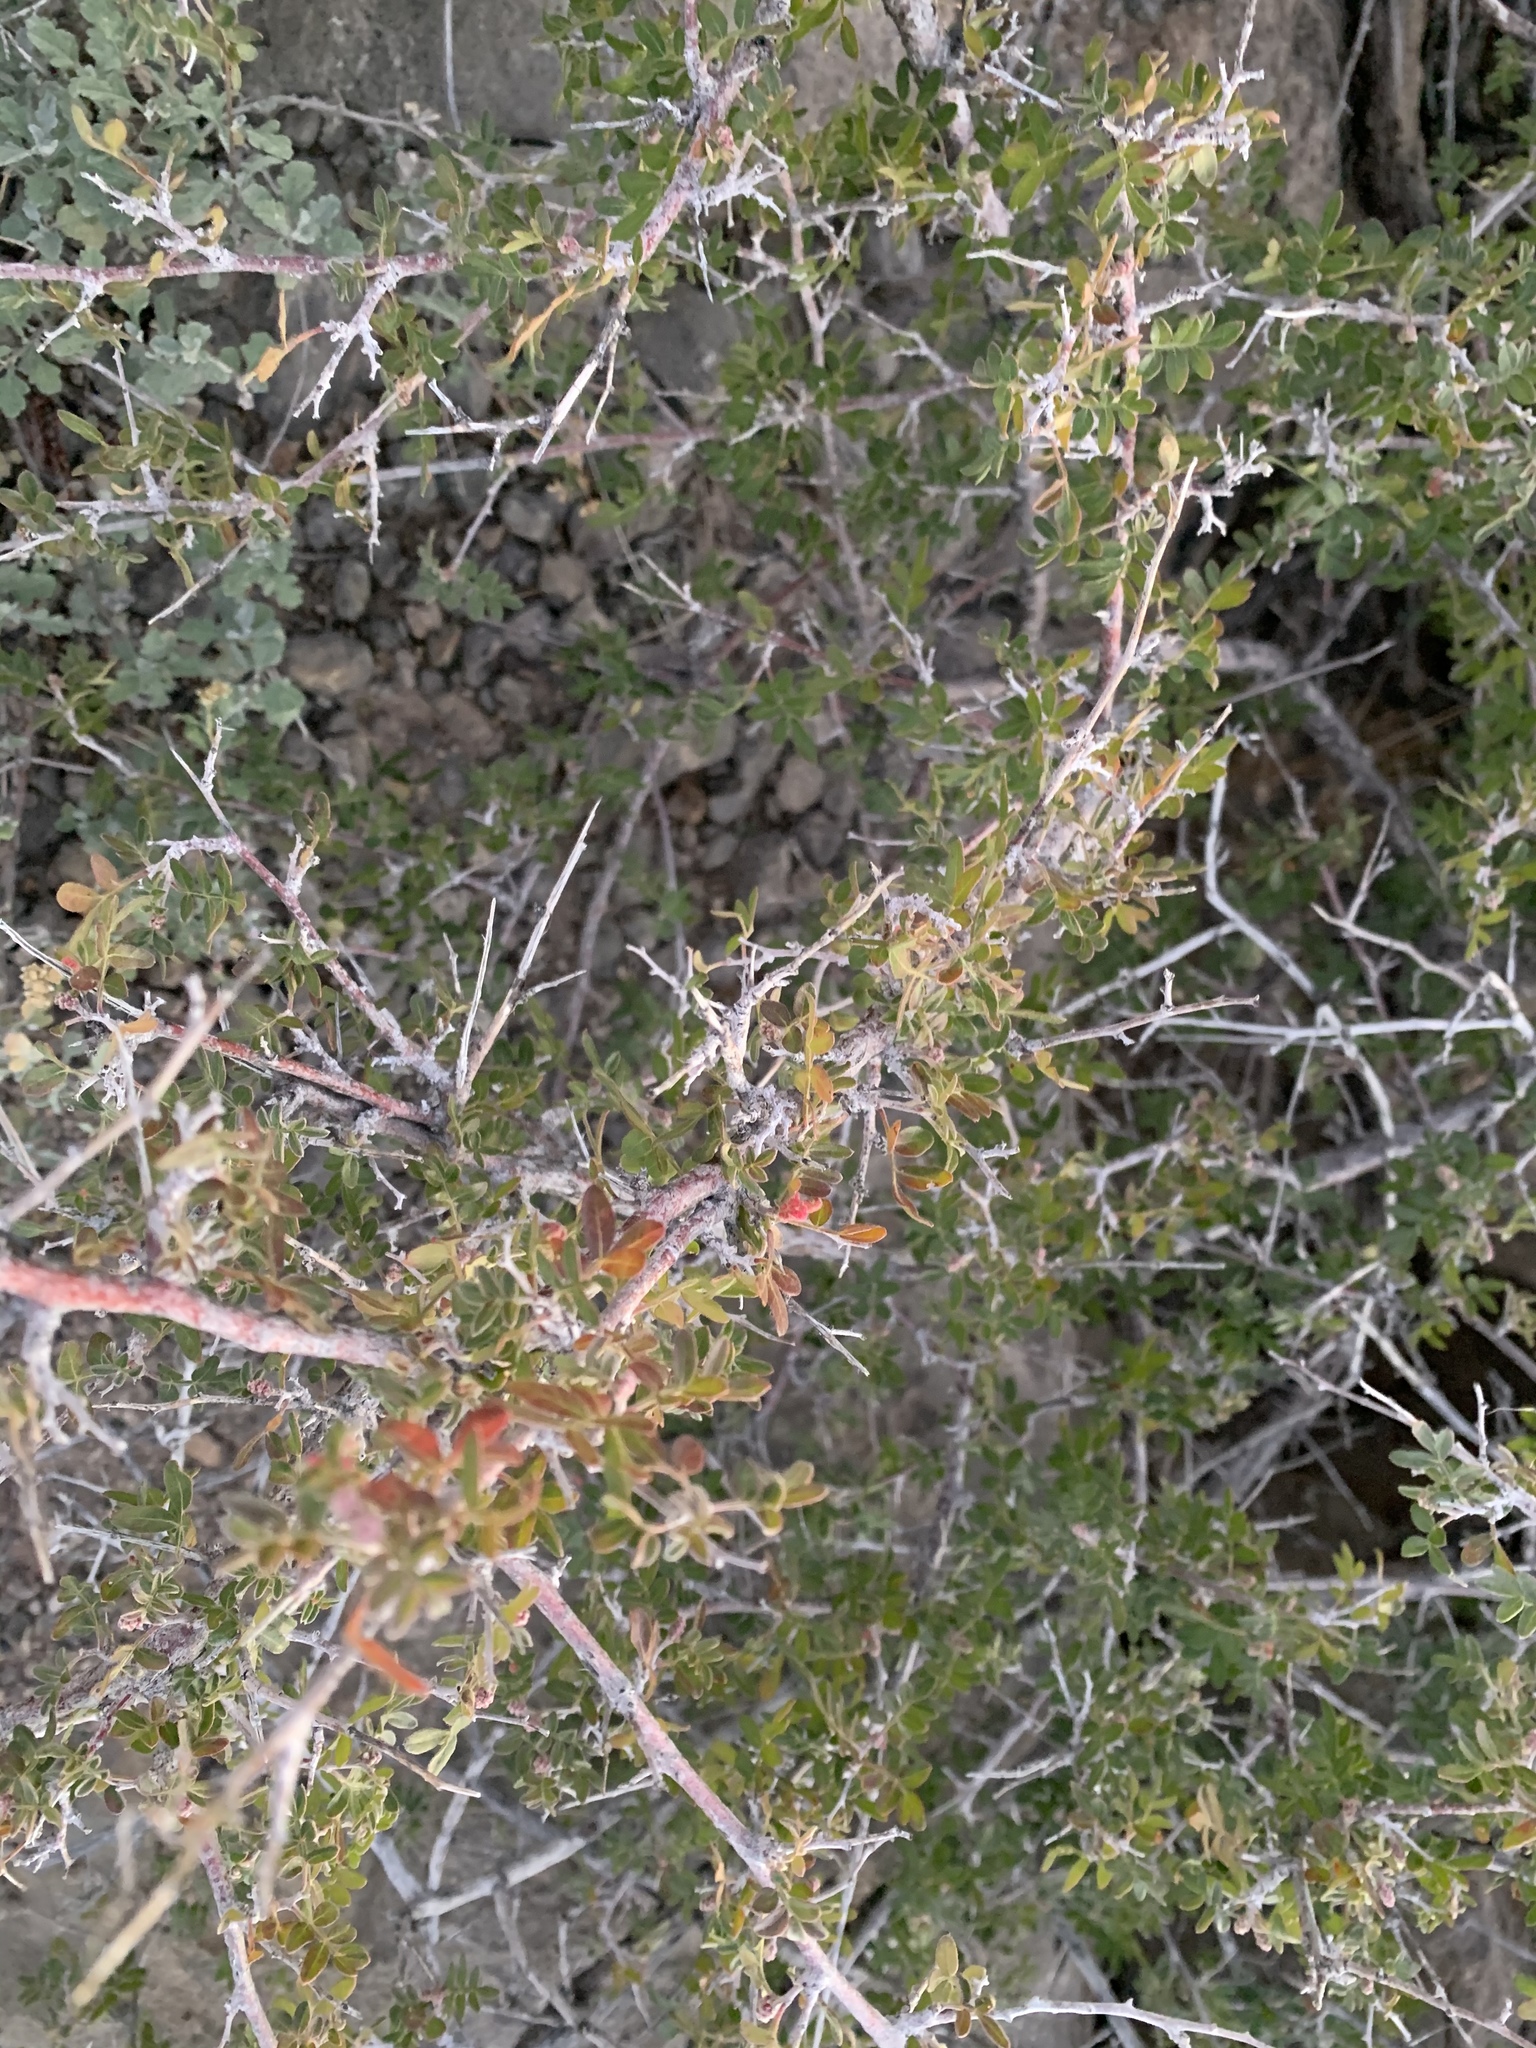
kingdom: Plantae
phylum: Tracheophyta
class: Magnoliopsida
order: Sapindales
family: Anacardiaceae
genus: Rhus
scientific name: Rhus microphylla
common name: Desert sumac
